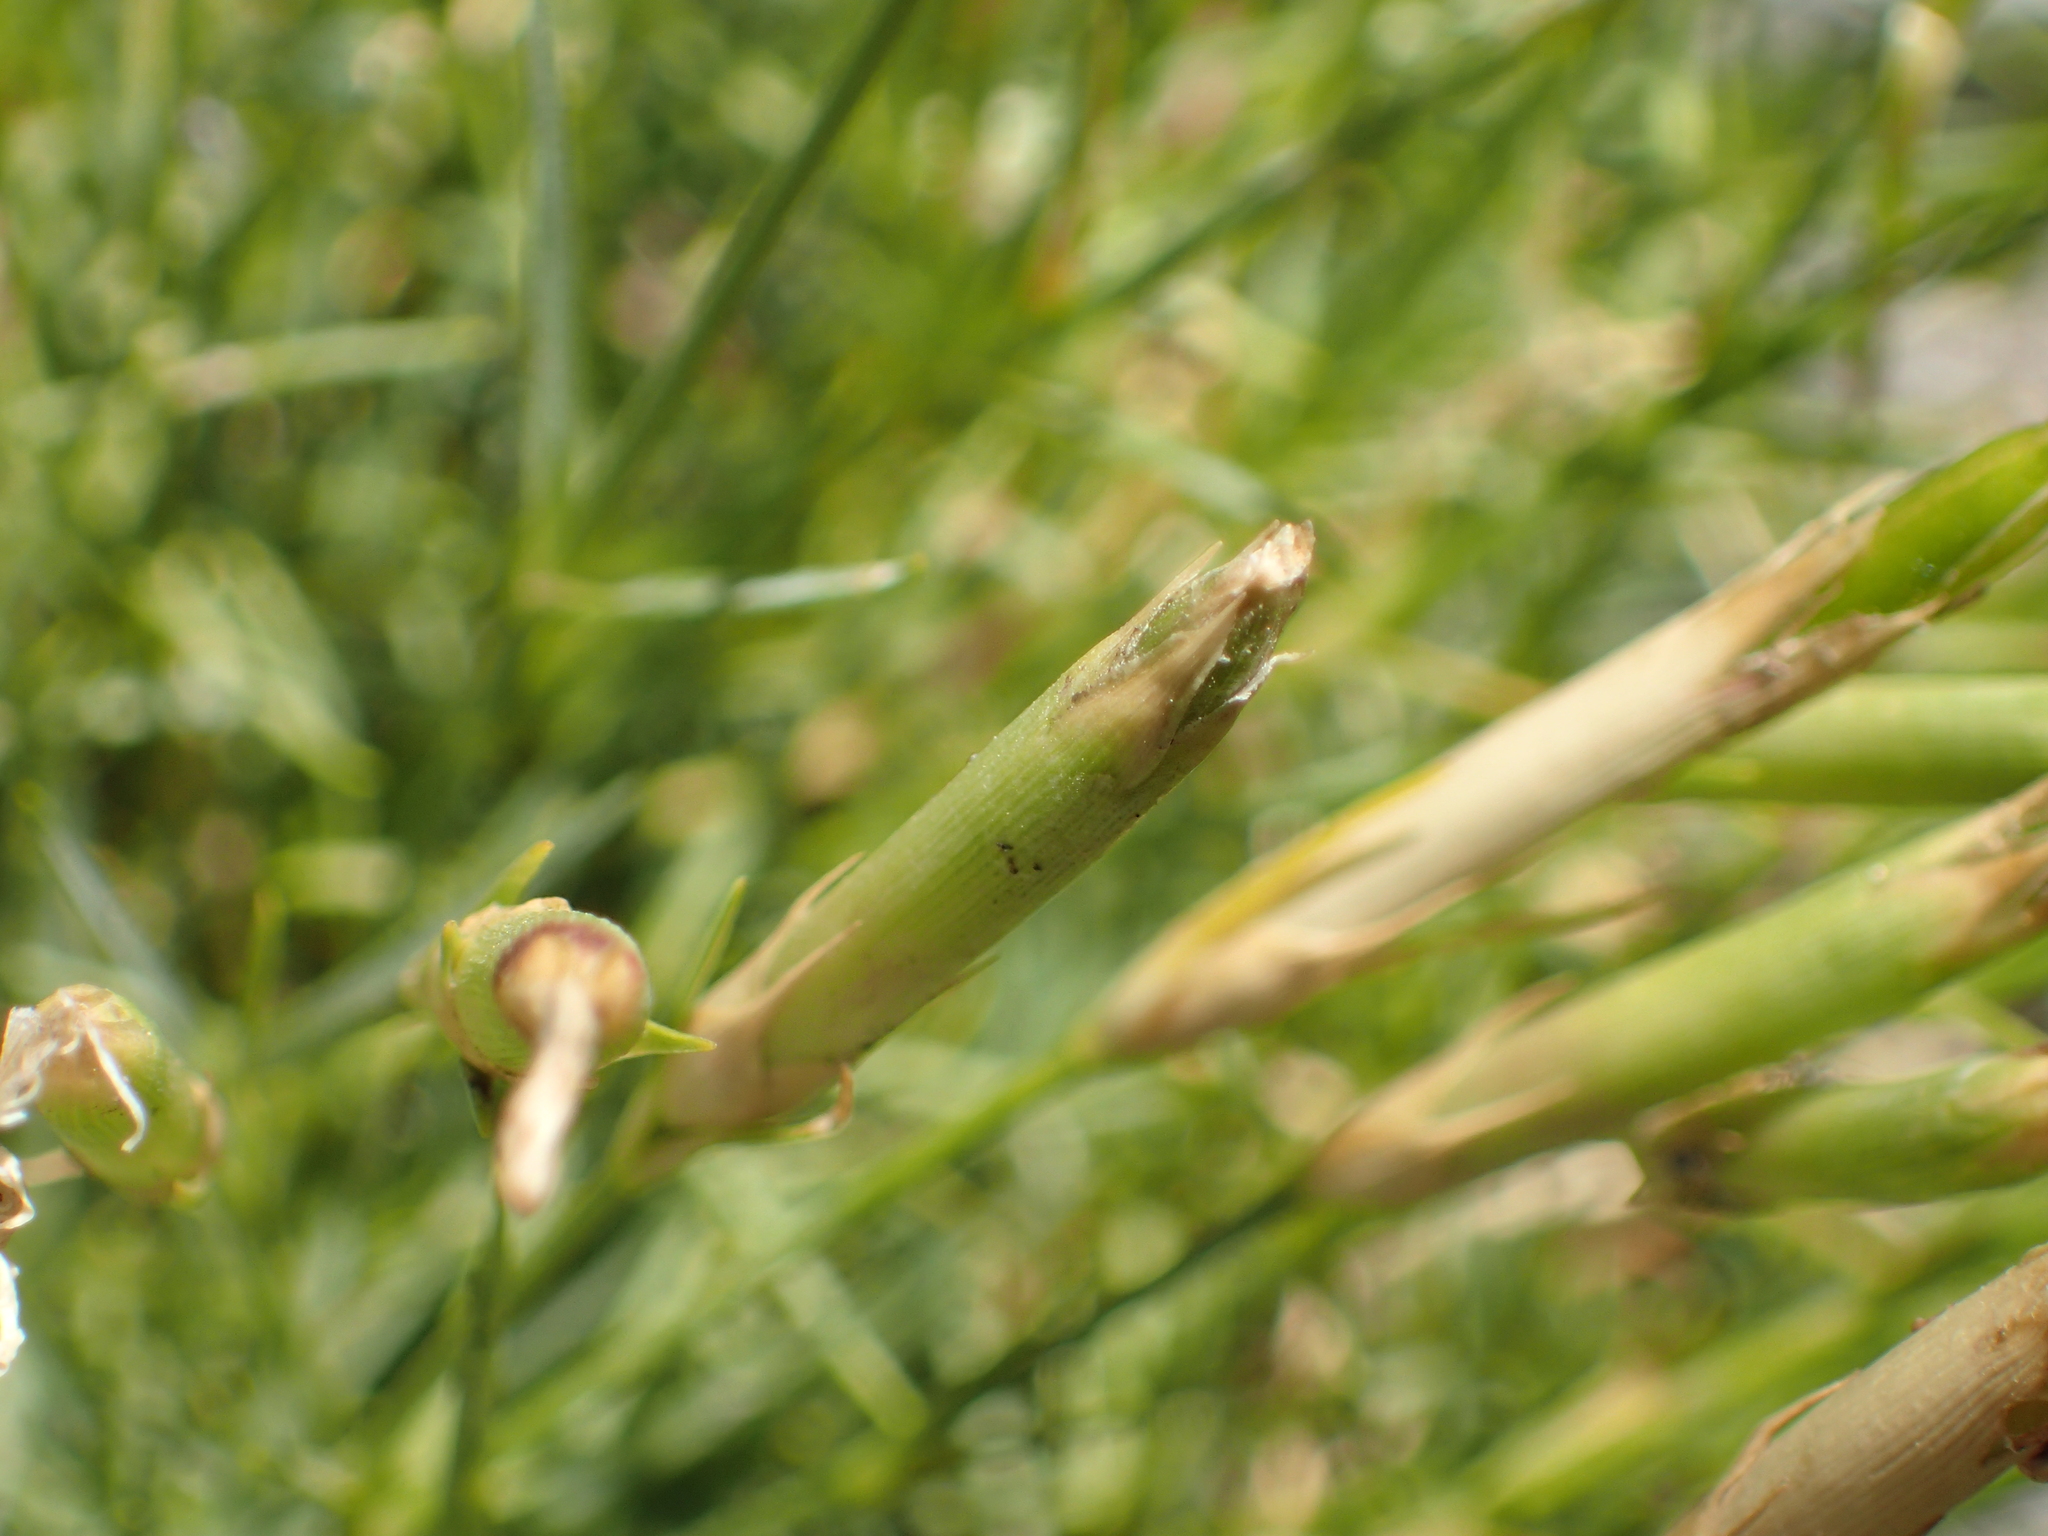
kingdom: Plantae
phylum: Tracheophyta
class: Magnoliopsida
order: Caryophyllales
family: Caryophyllaceae
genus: Dianthus
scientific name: Dianthus petraeus
